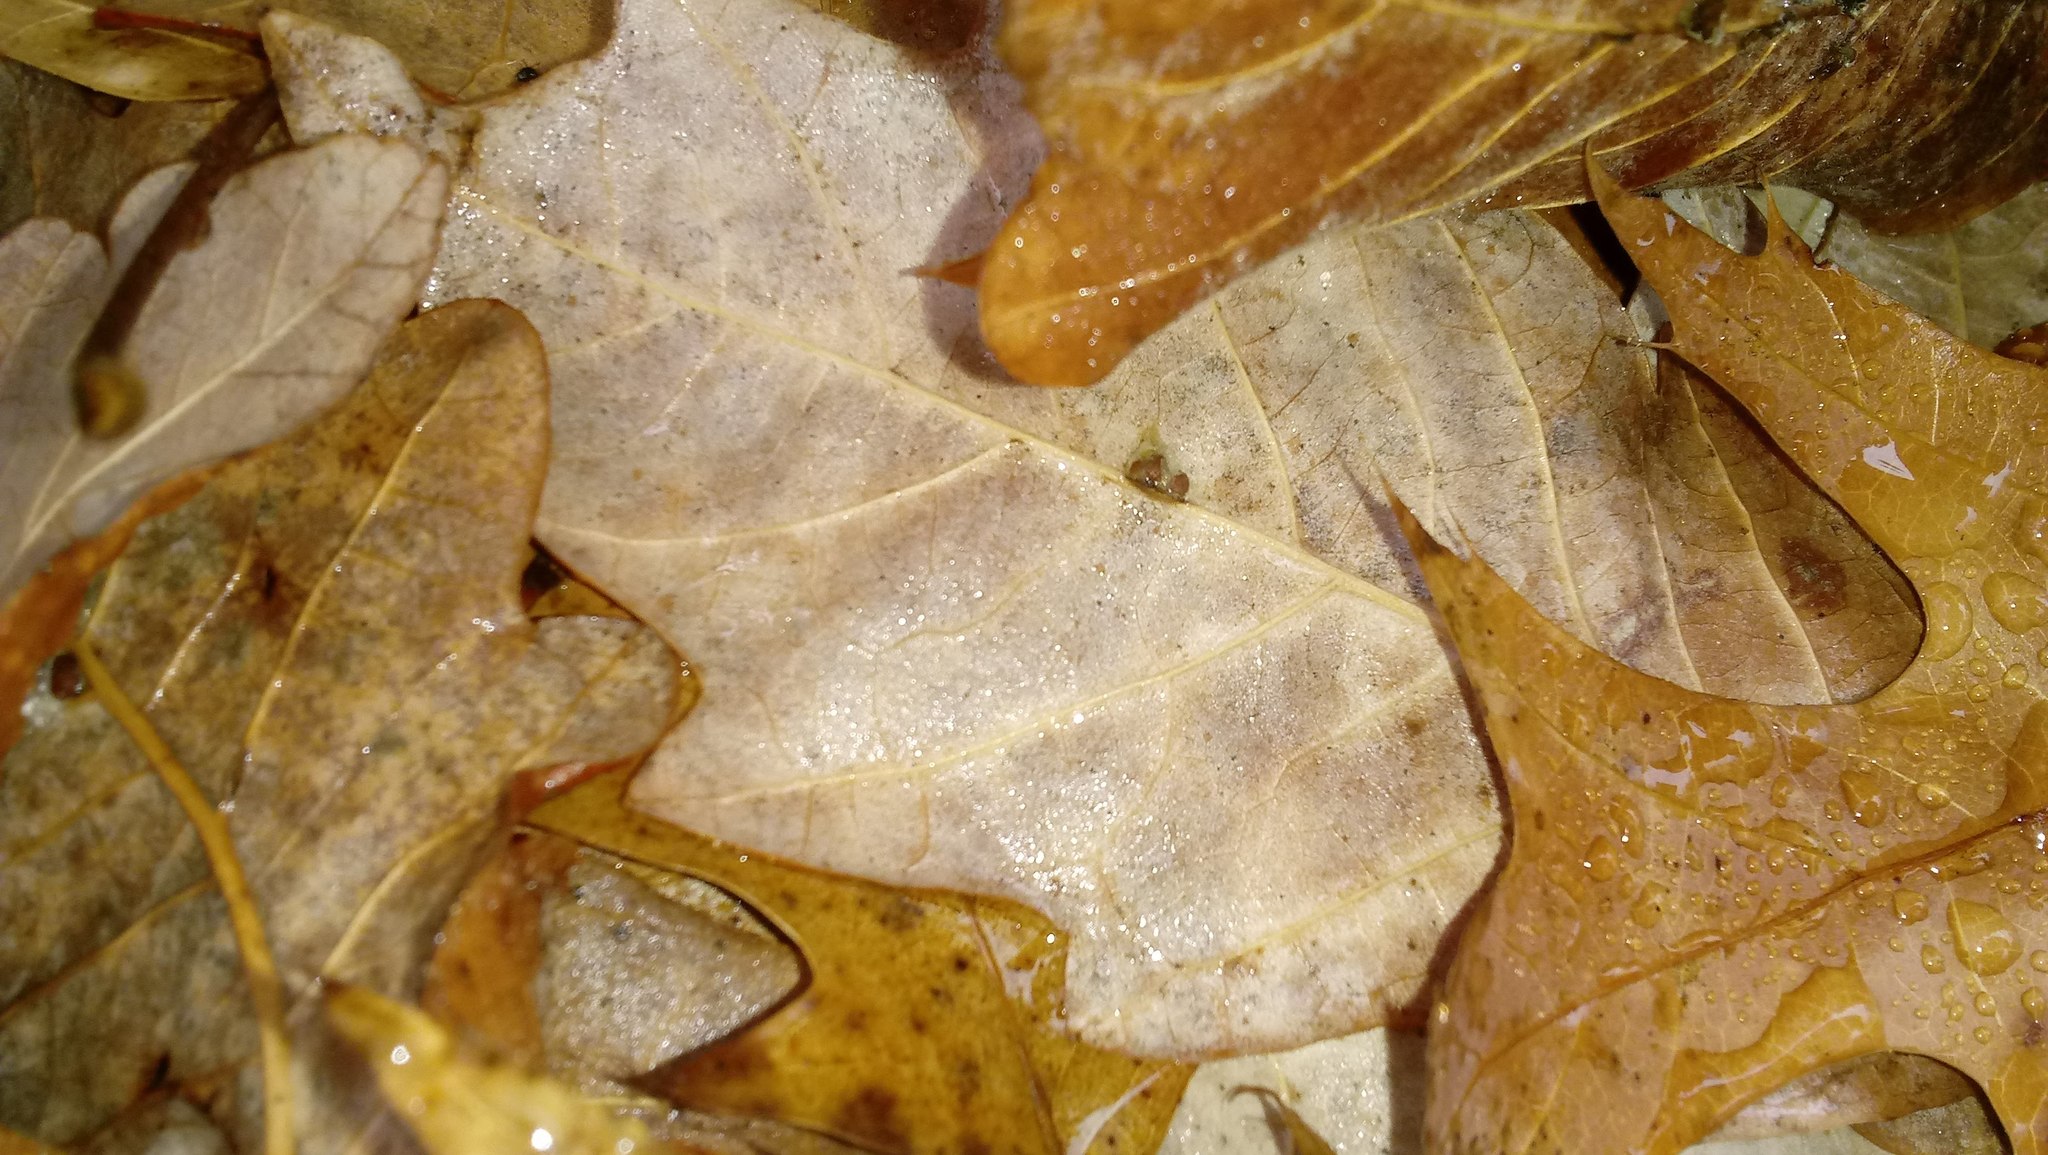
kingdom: Animalia
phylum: Arthropoda
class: Insecta
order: Hymenoptera
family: Cynipidae
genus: Andricus
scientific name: Andricus Druon ignotum
